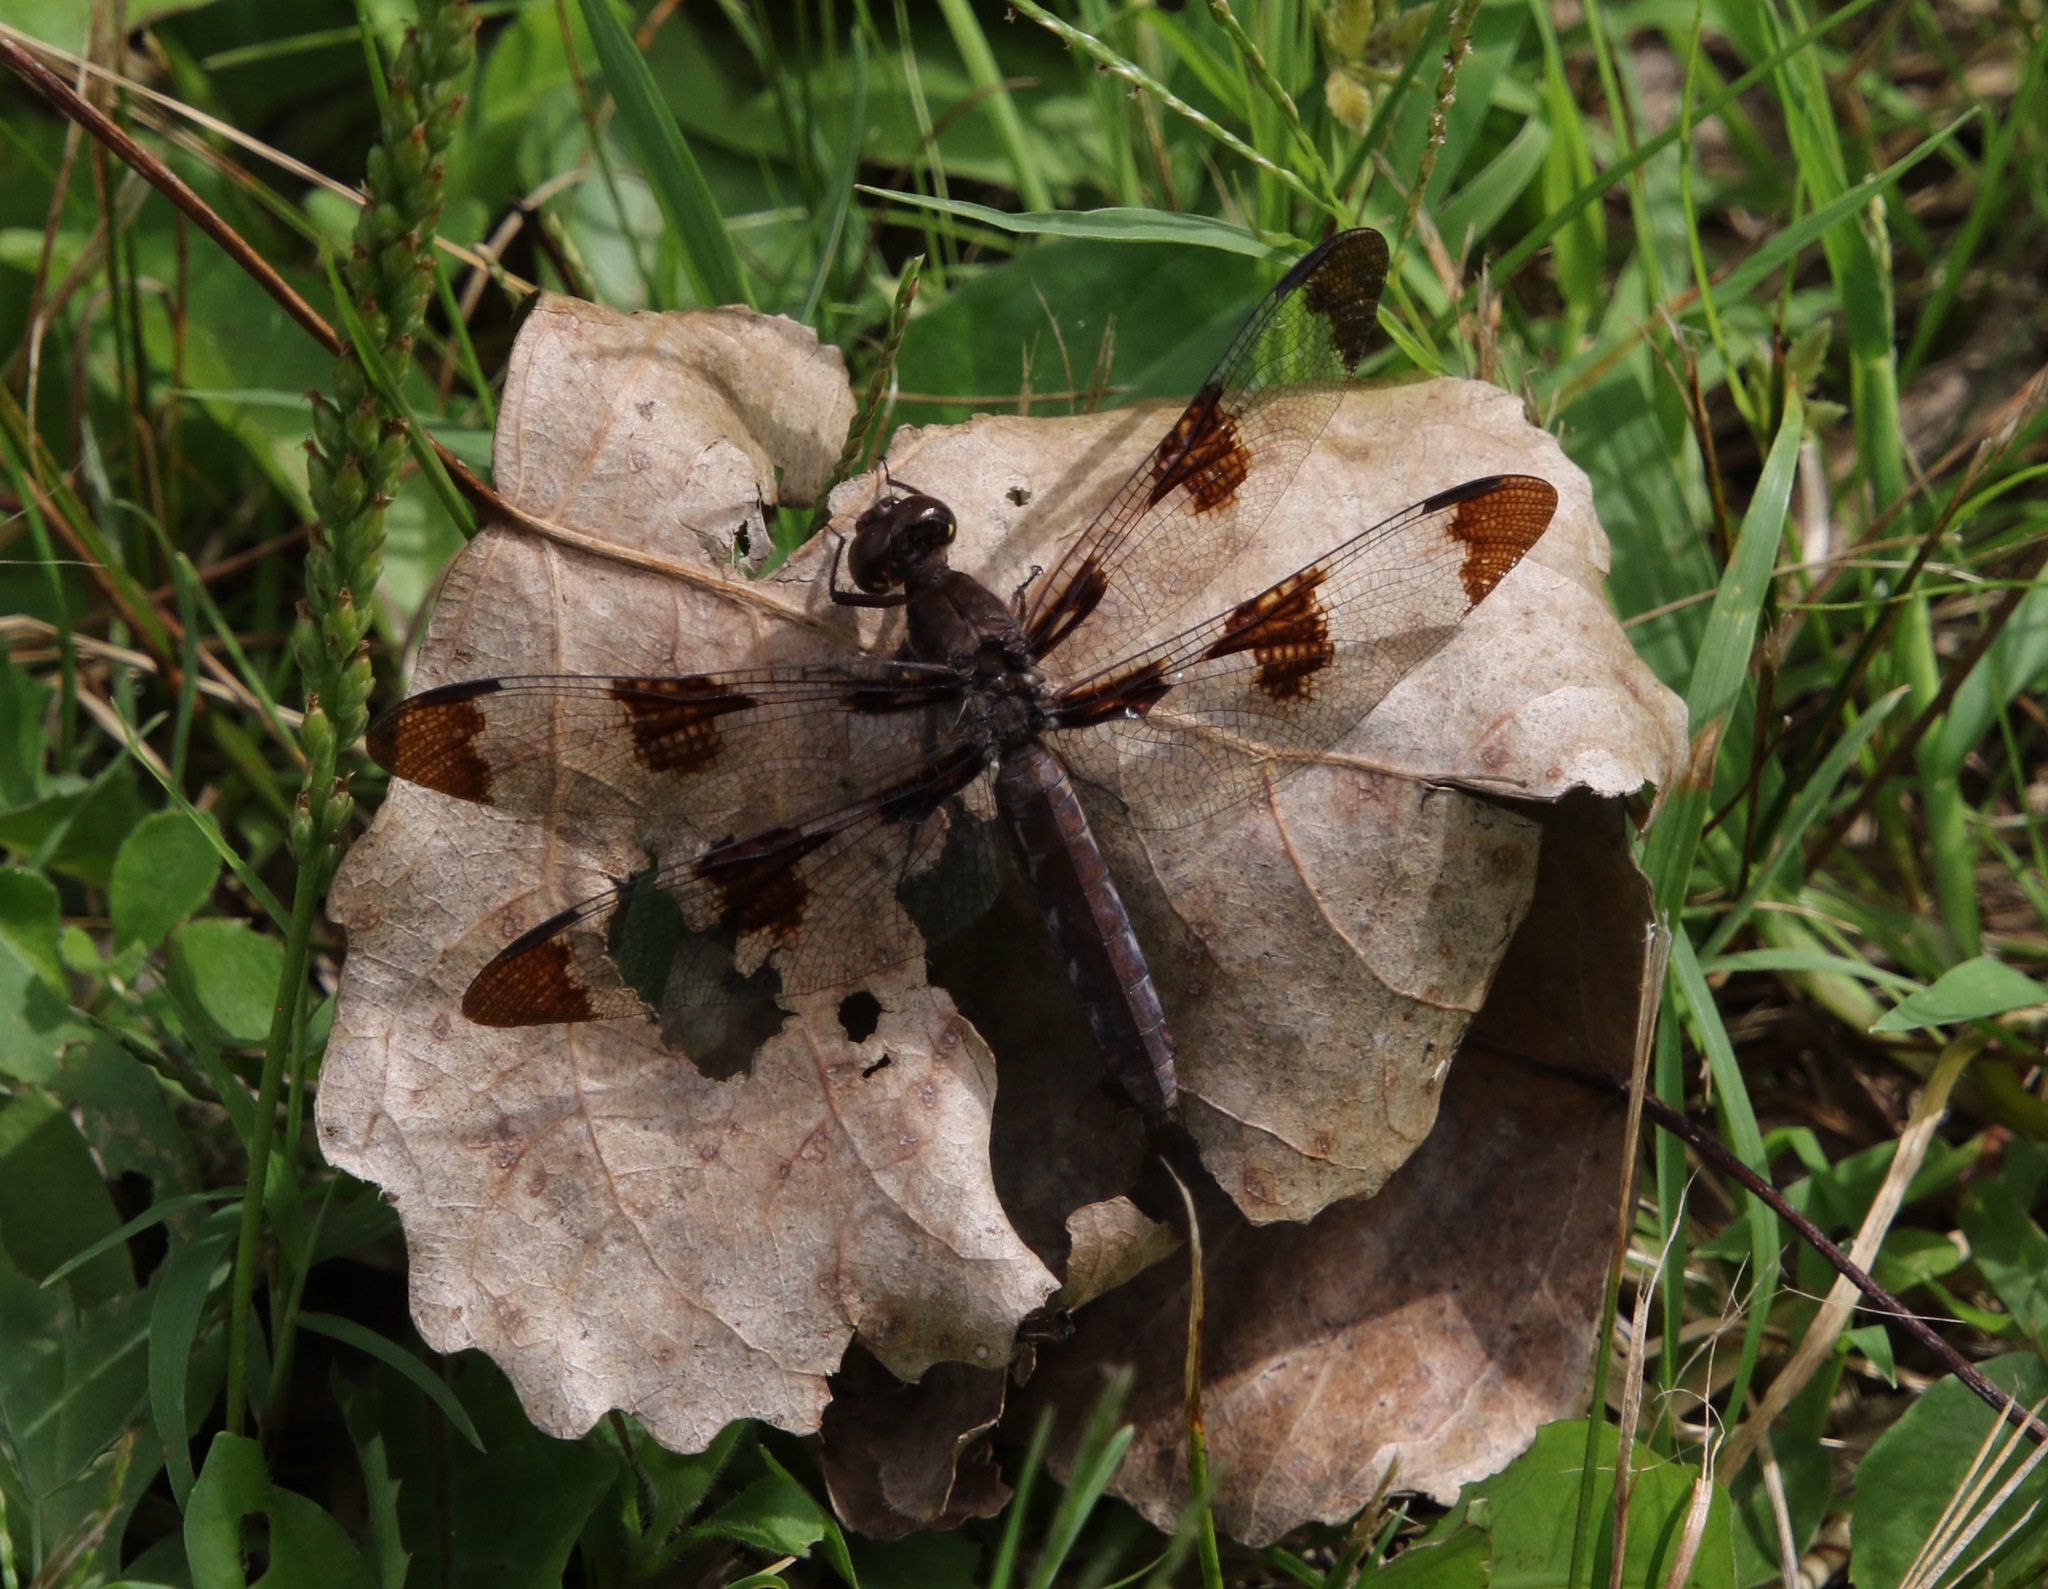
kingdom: Animalia
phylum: Arthropoda
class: Insecta
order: Odonata
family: Libellulidae
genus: Plathemis
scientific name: Plathemis lydia
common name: Common whitetail
